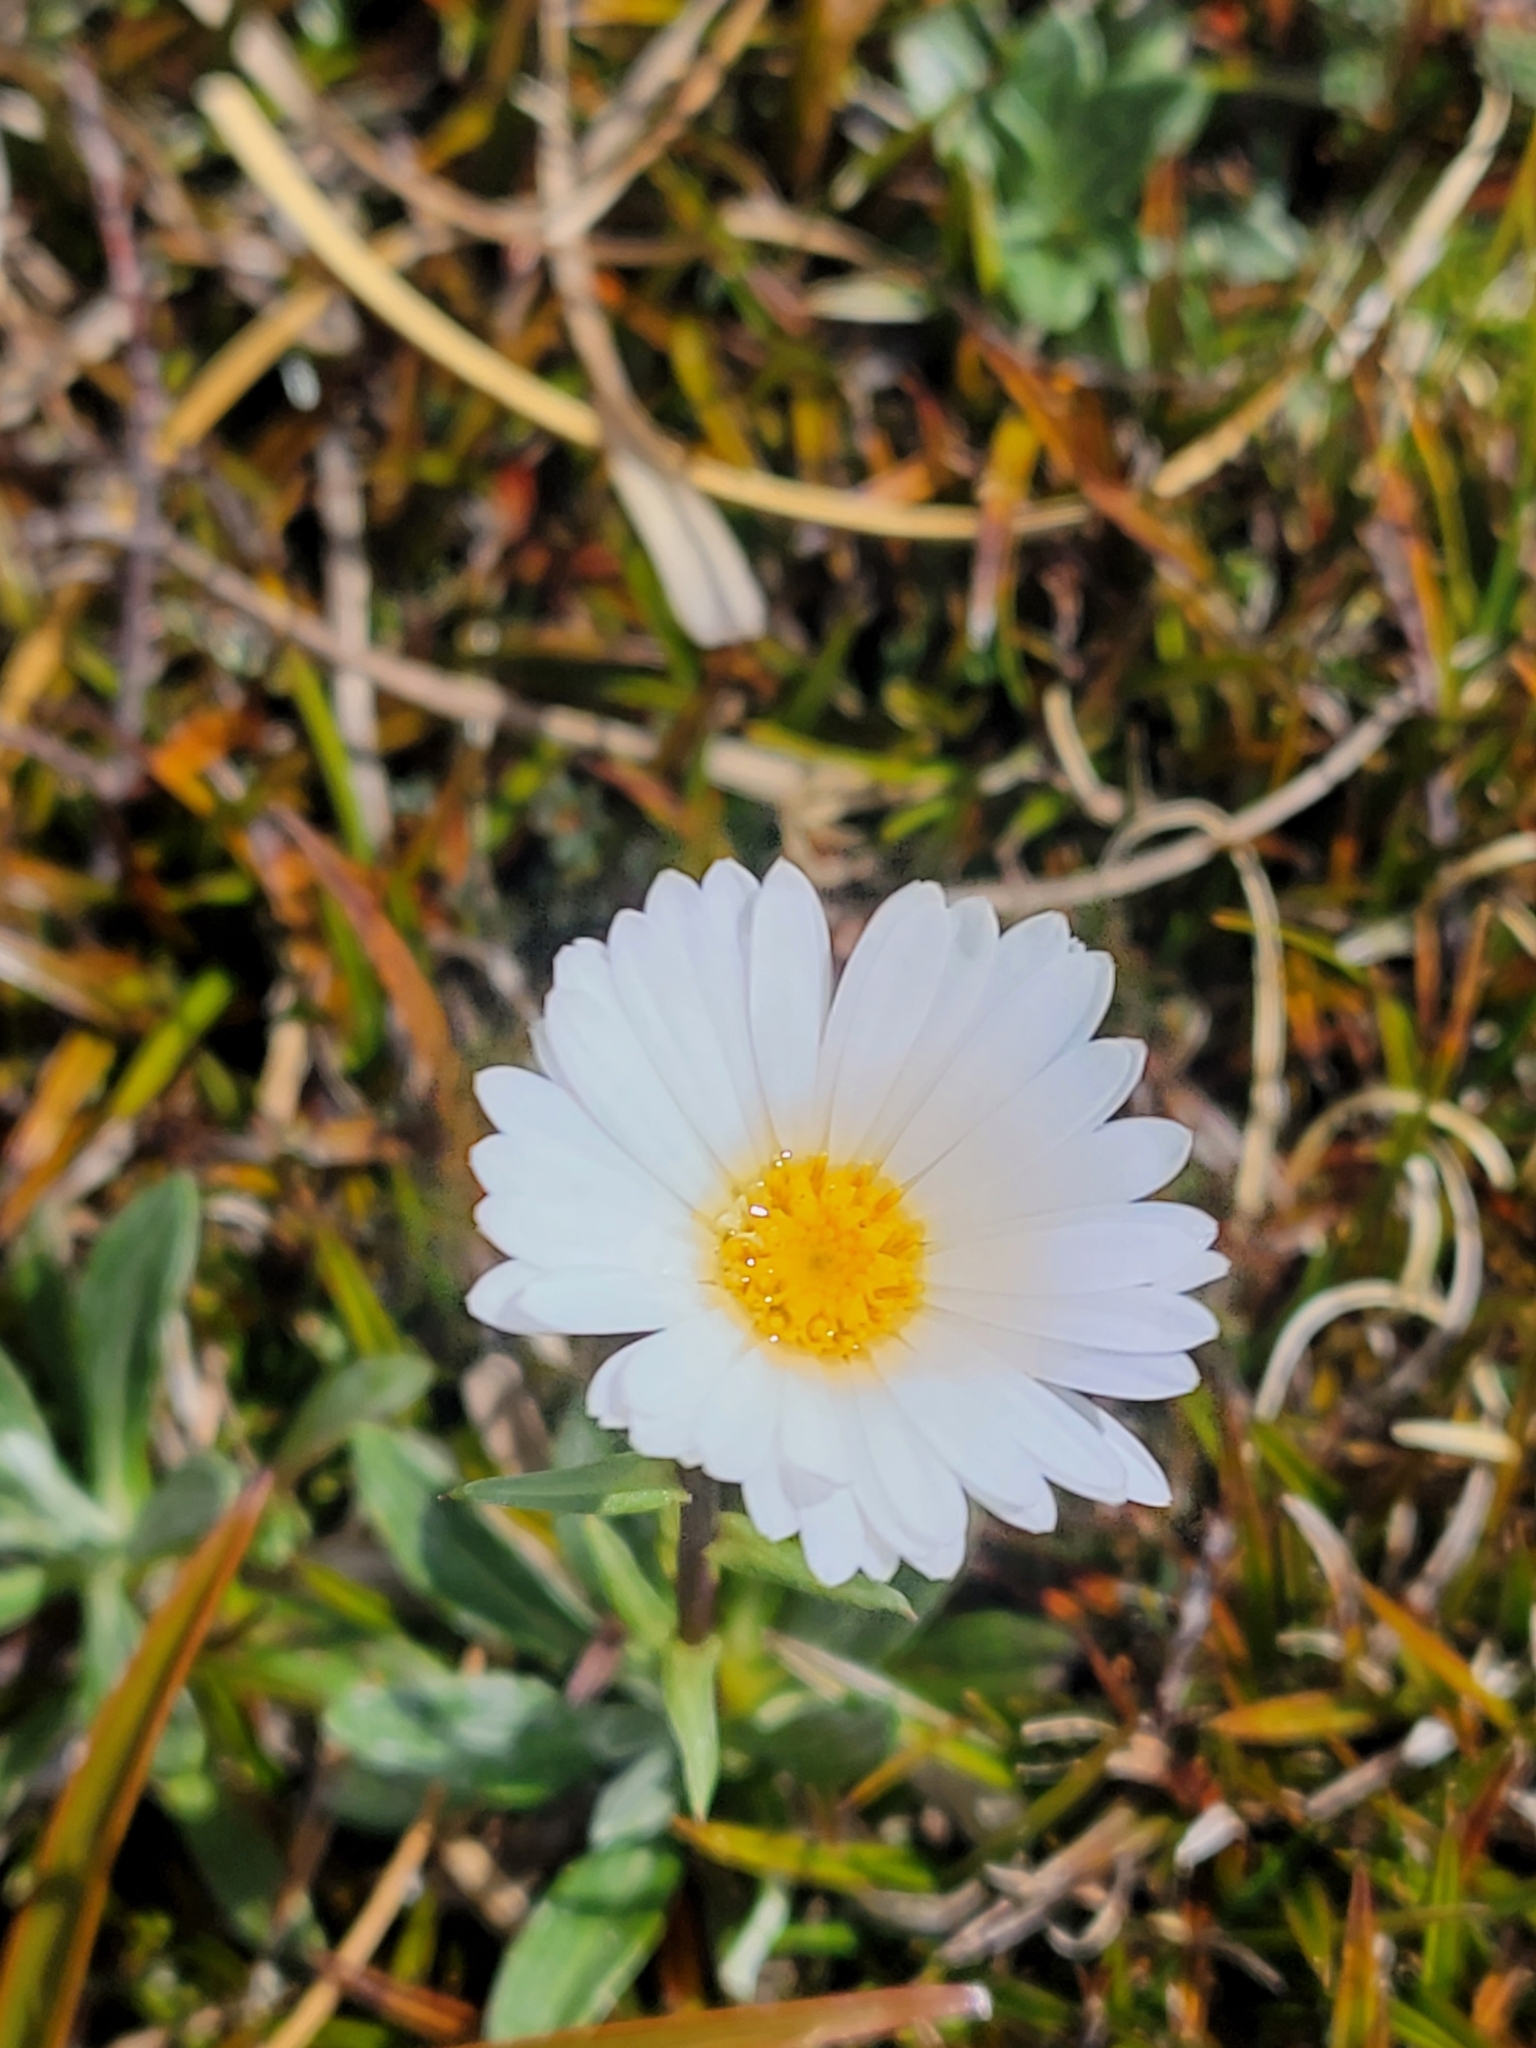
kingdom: Plantae
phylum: Tracheophyta
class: Magnoliopsida
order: Asterales
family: Asteraceae
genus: Celmisia
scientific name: Celmisia durietzii
